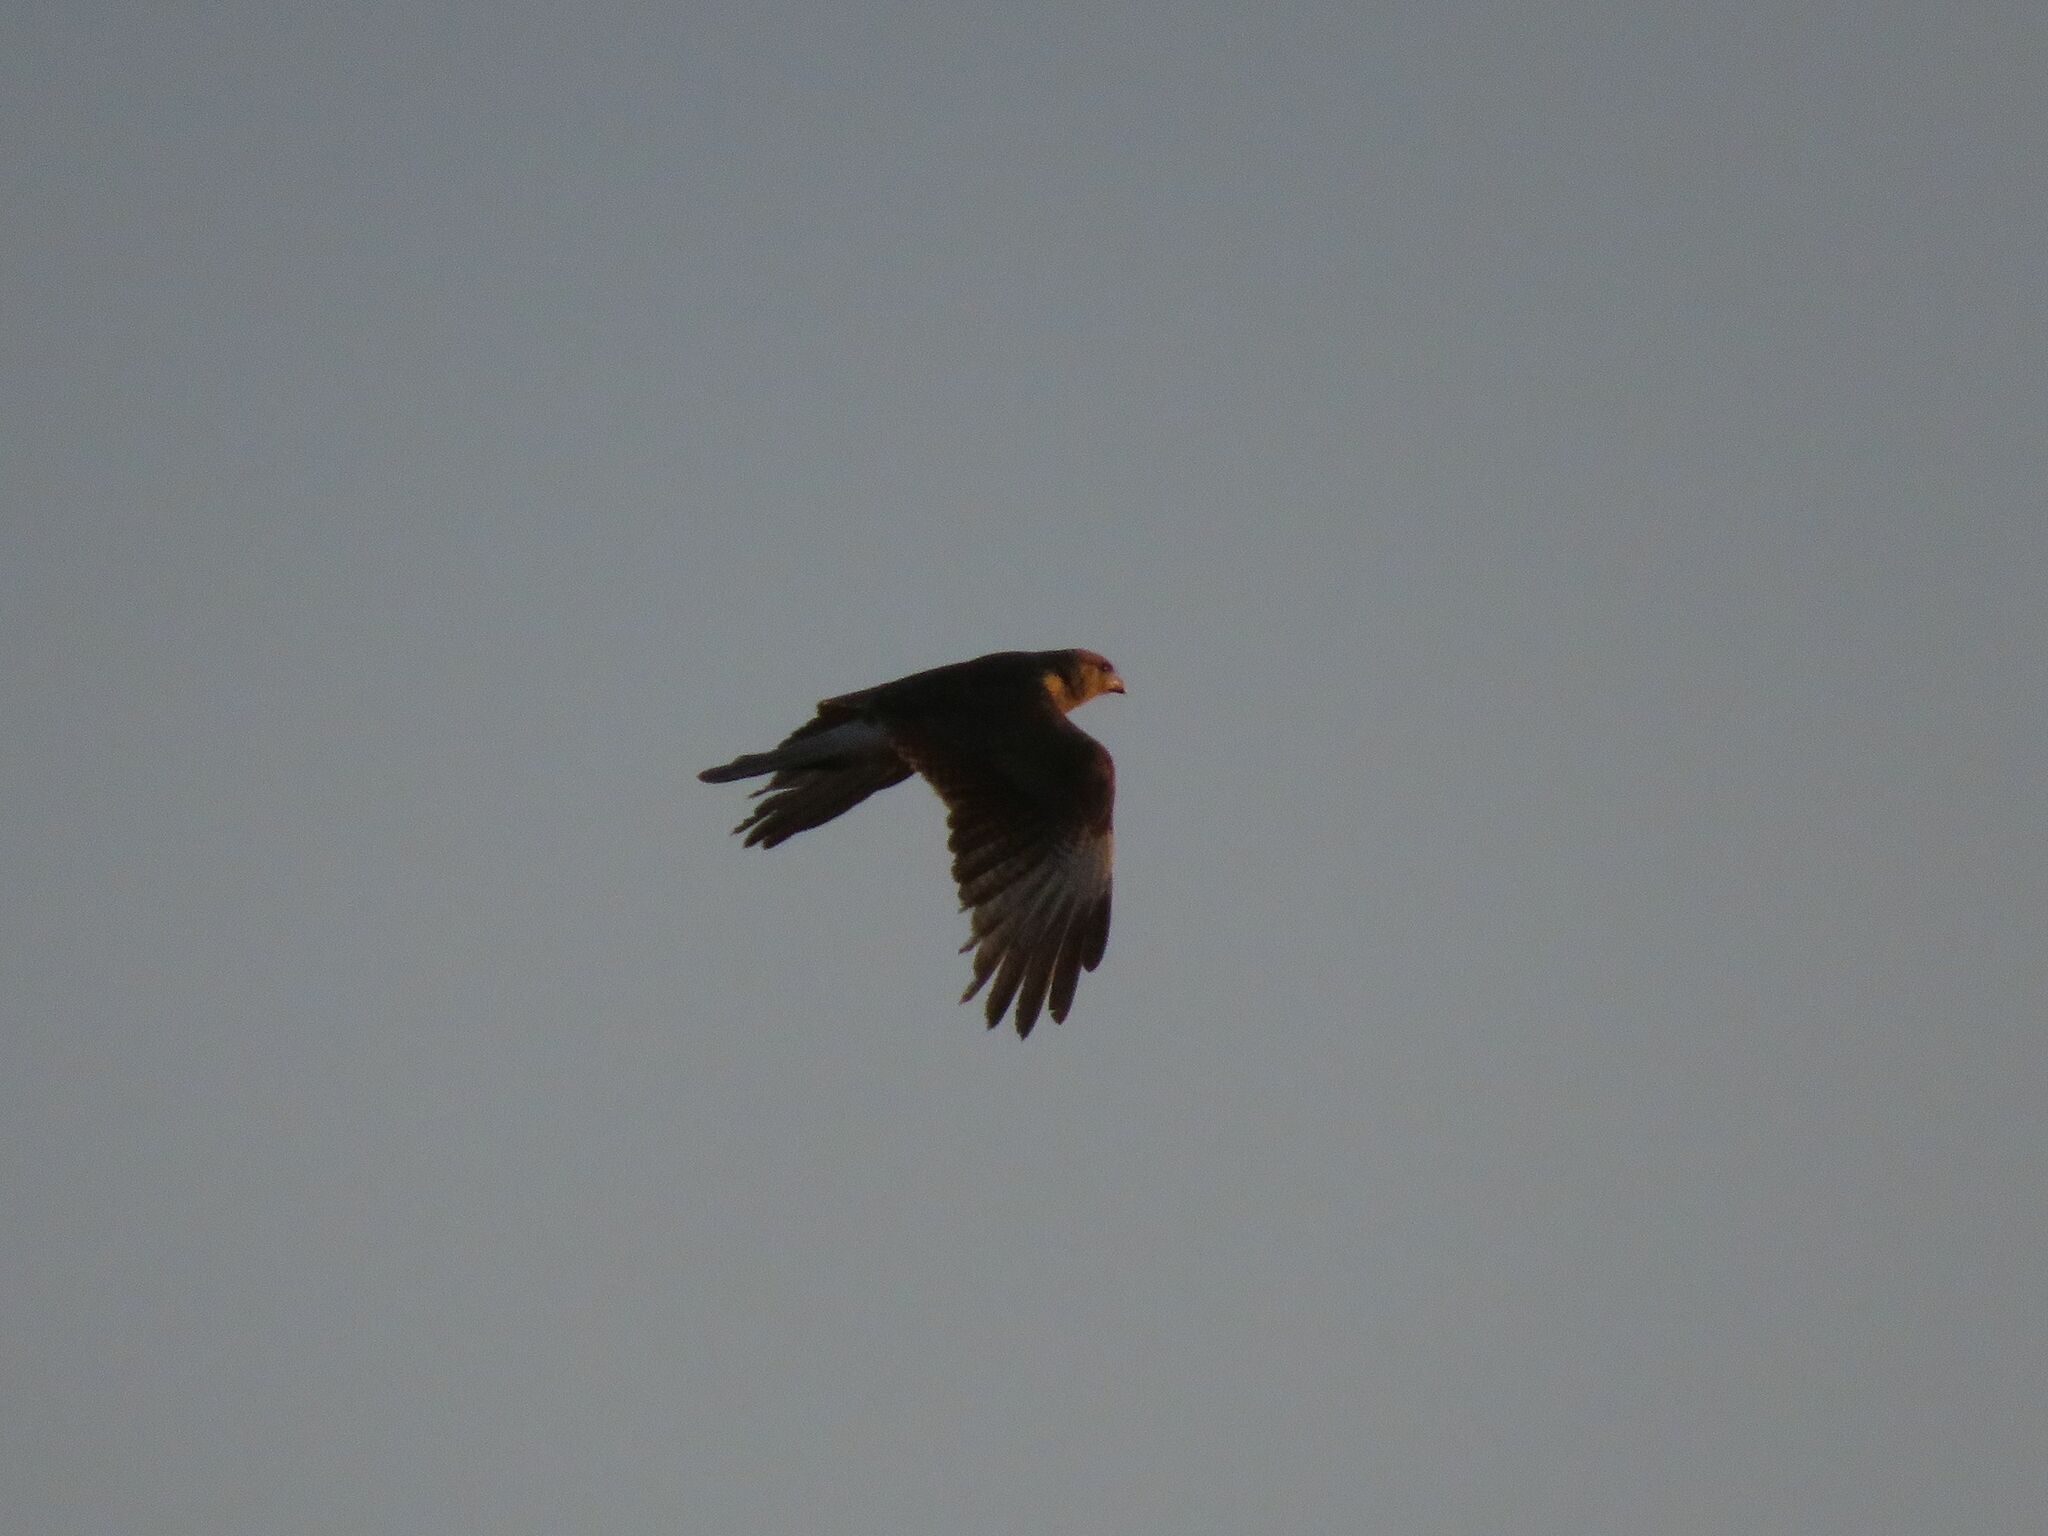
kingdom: Animalia
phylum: Chordata
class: Aves
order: Falconiformes
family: Falconidae
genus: Daptrius
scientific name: Daptrius
